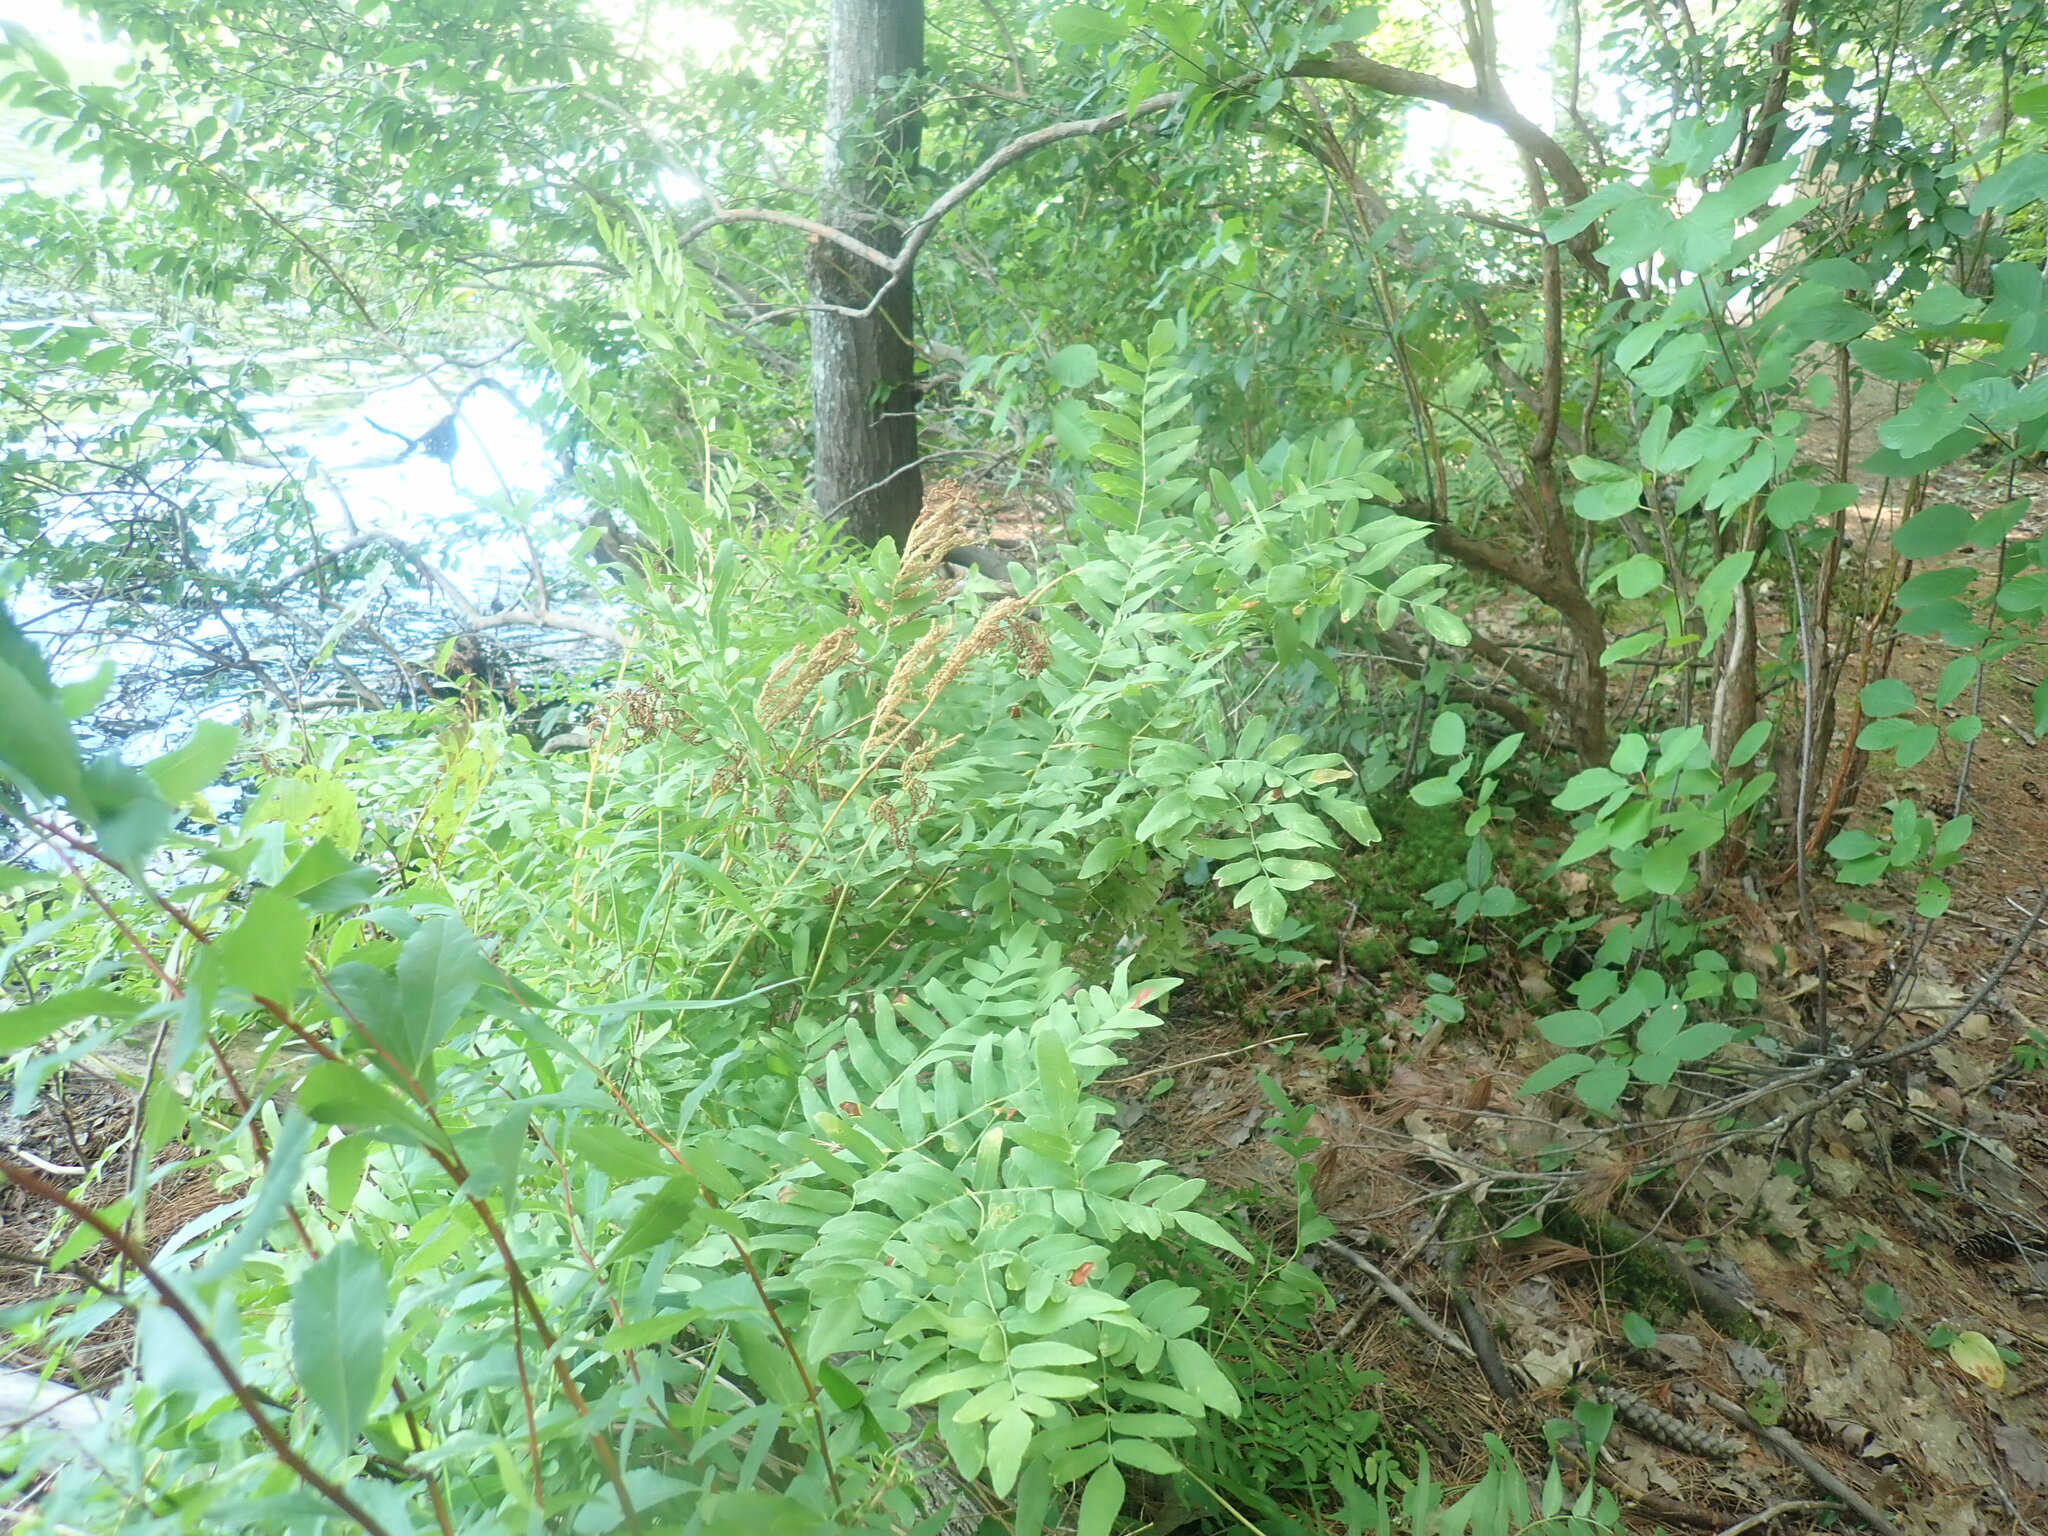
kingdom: Plantae
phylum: Tracheophyta
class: Polypodiopsida
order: Osmundales
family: Osmundaceae
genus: Osmunda
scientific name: Osmunda spectabilis
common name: American royal fern
